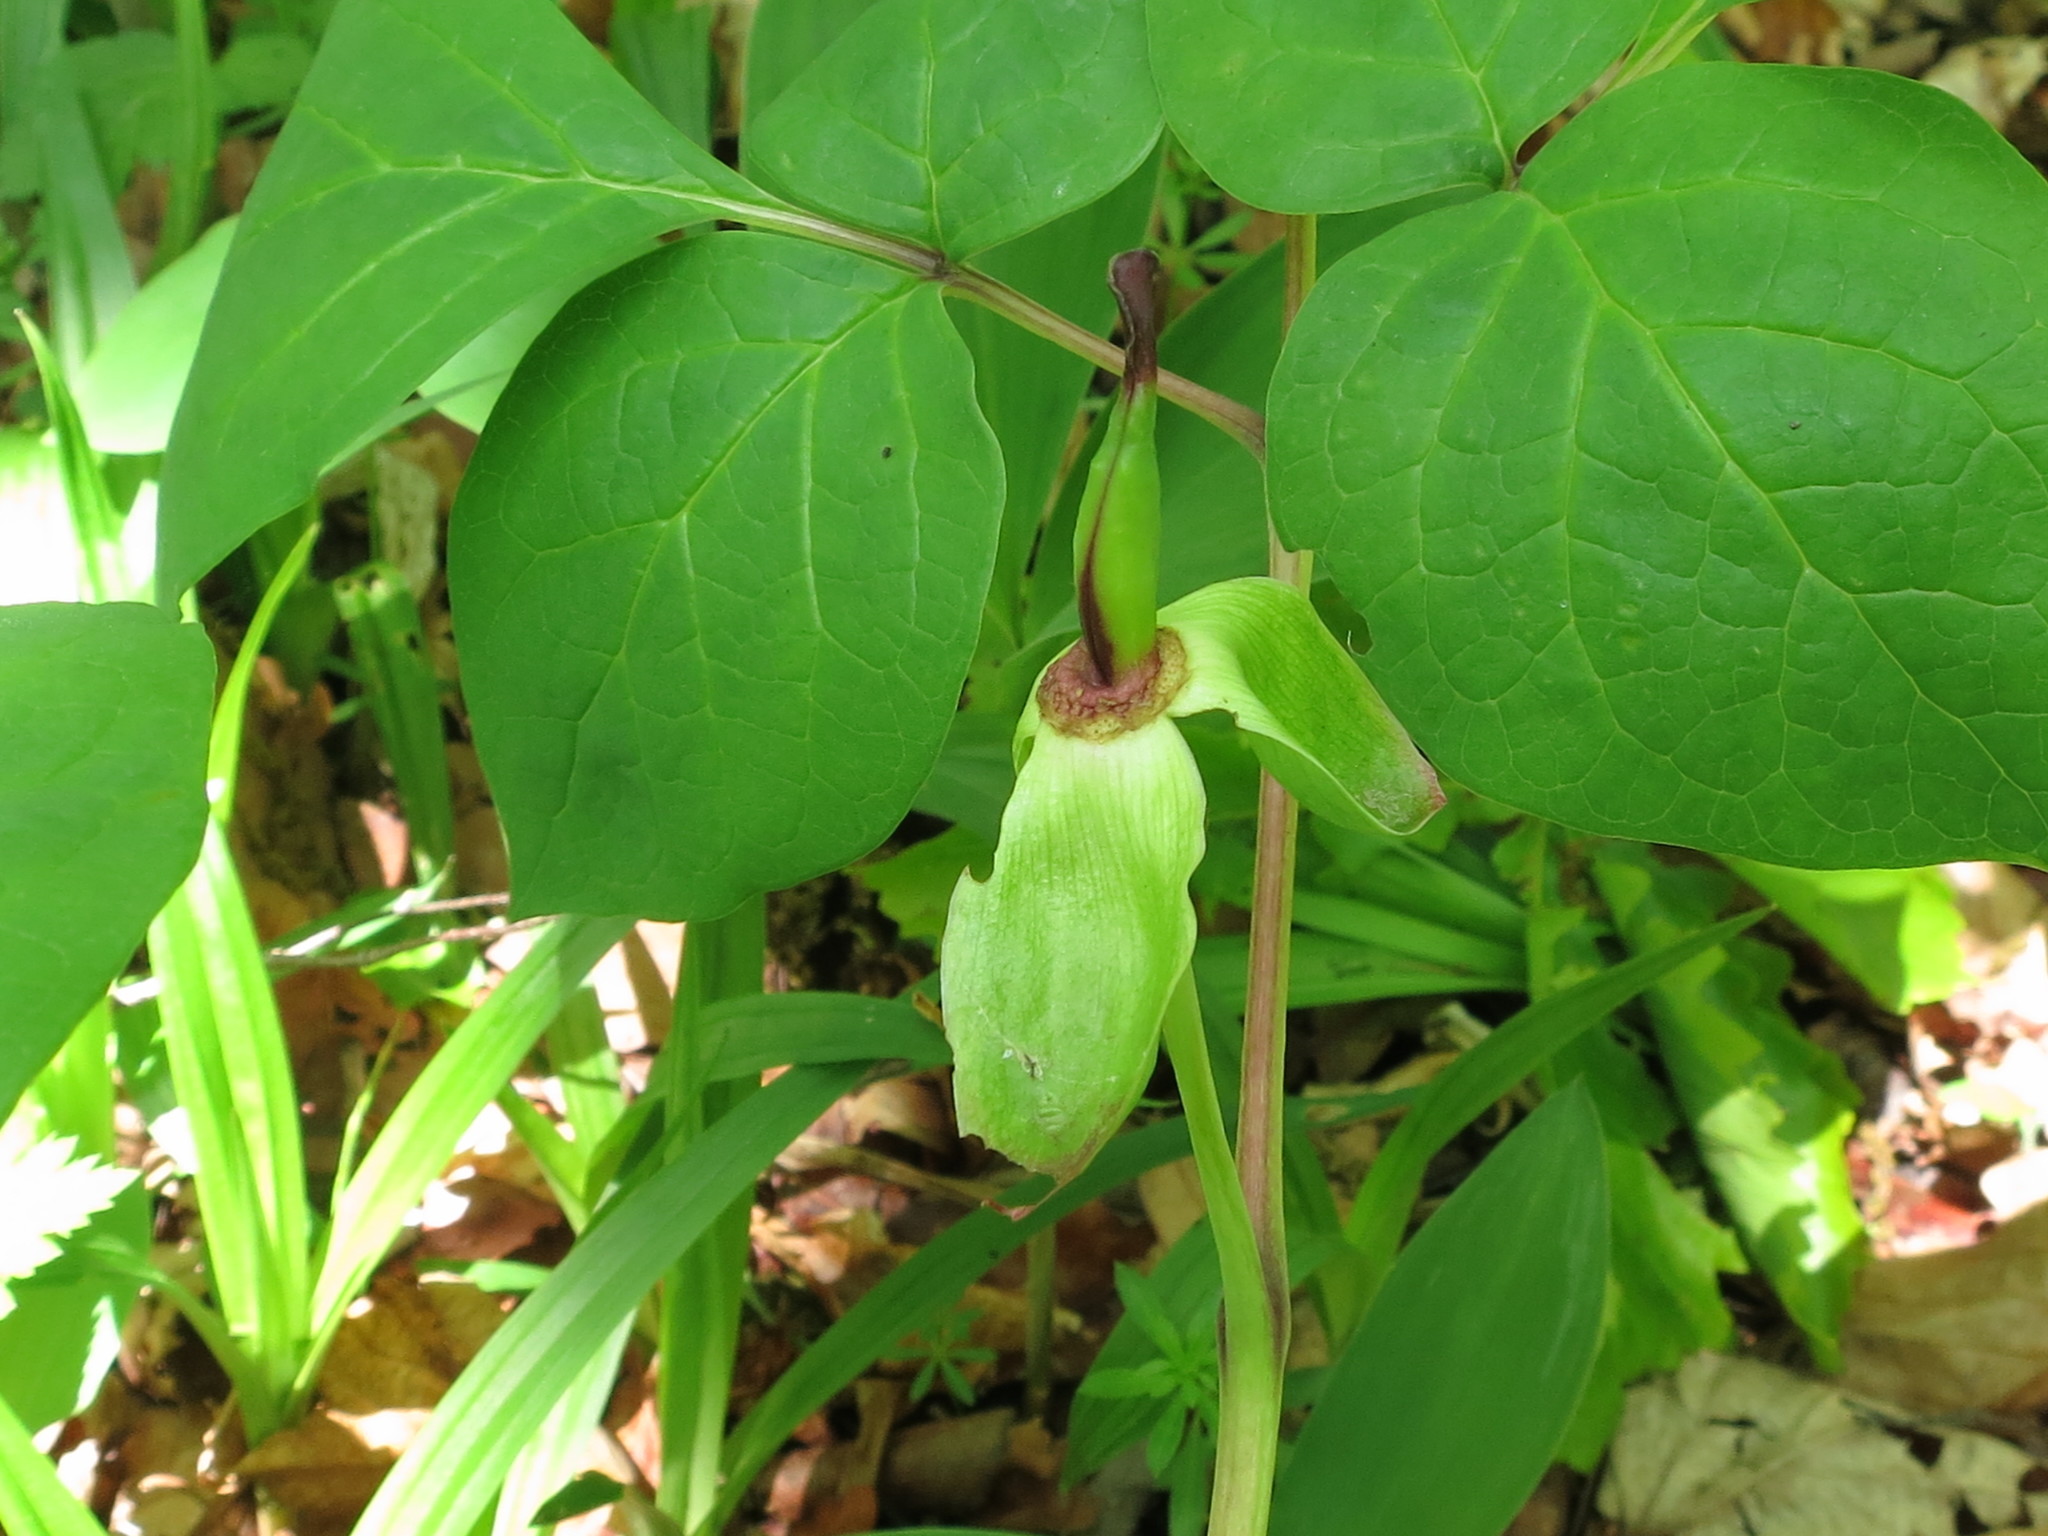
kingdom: Plantae
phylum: Tracheophyta
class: Magnoliopsida
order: Saxifragales
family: Paeoniaceae
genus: Paeonia
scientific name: Paeonia obovata
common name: Chinese peony
